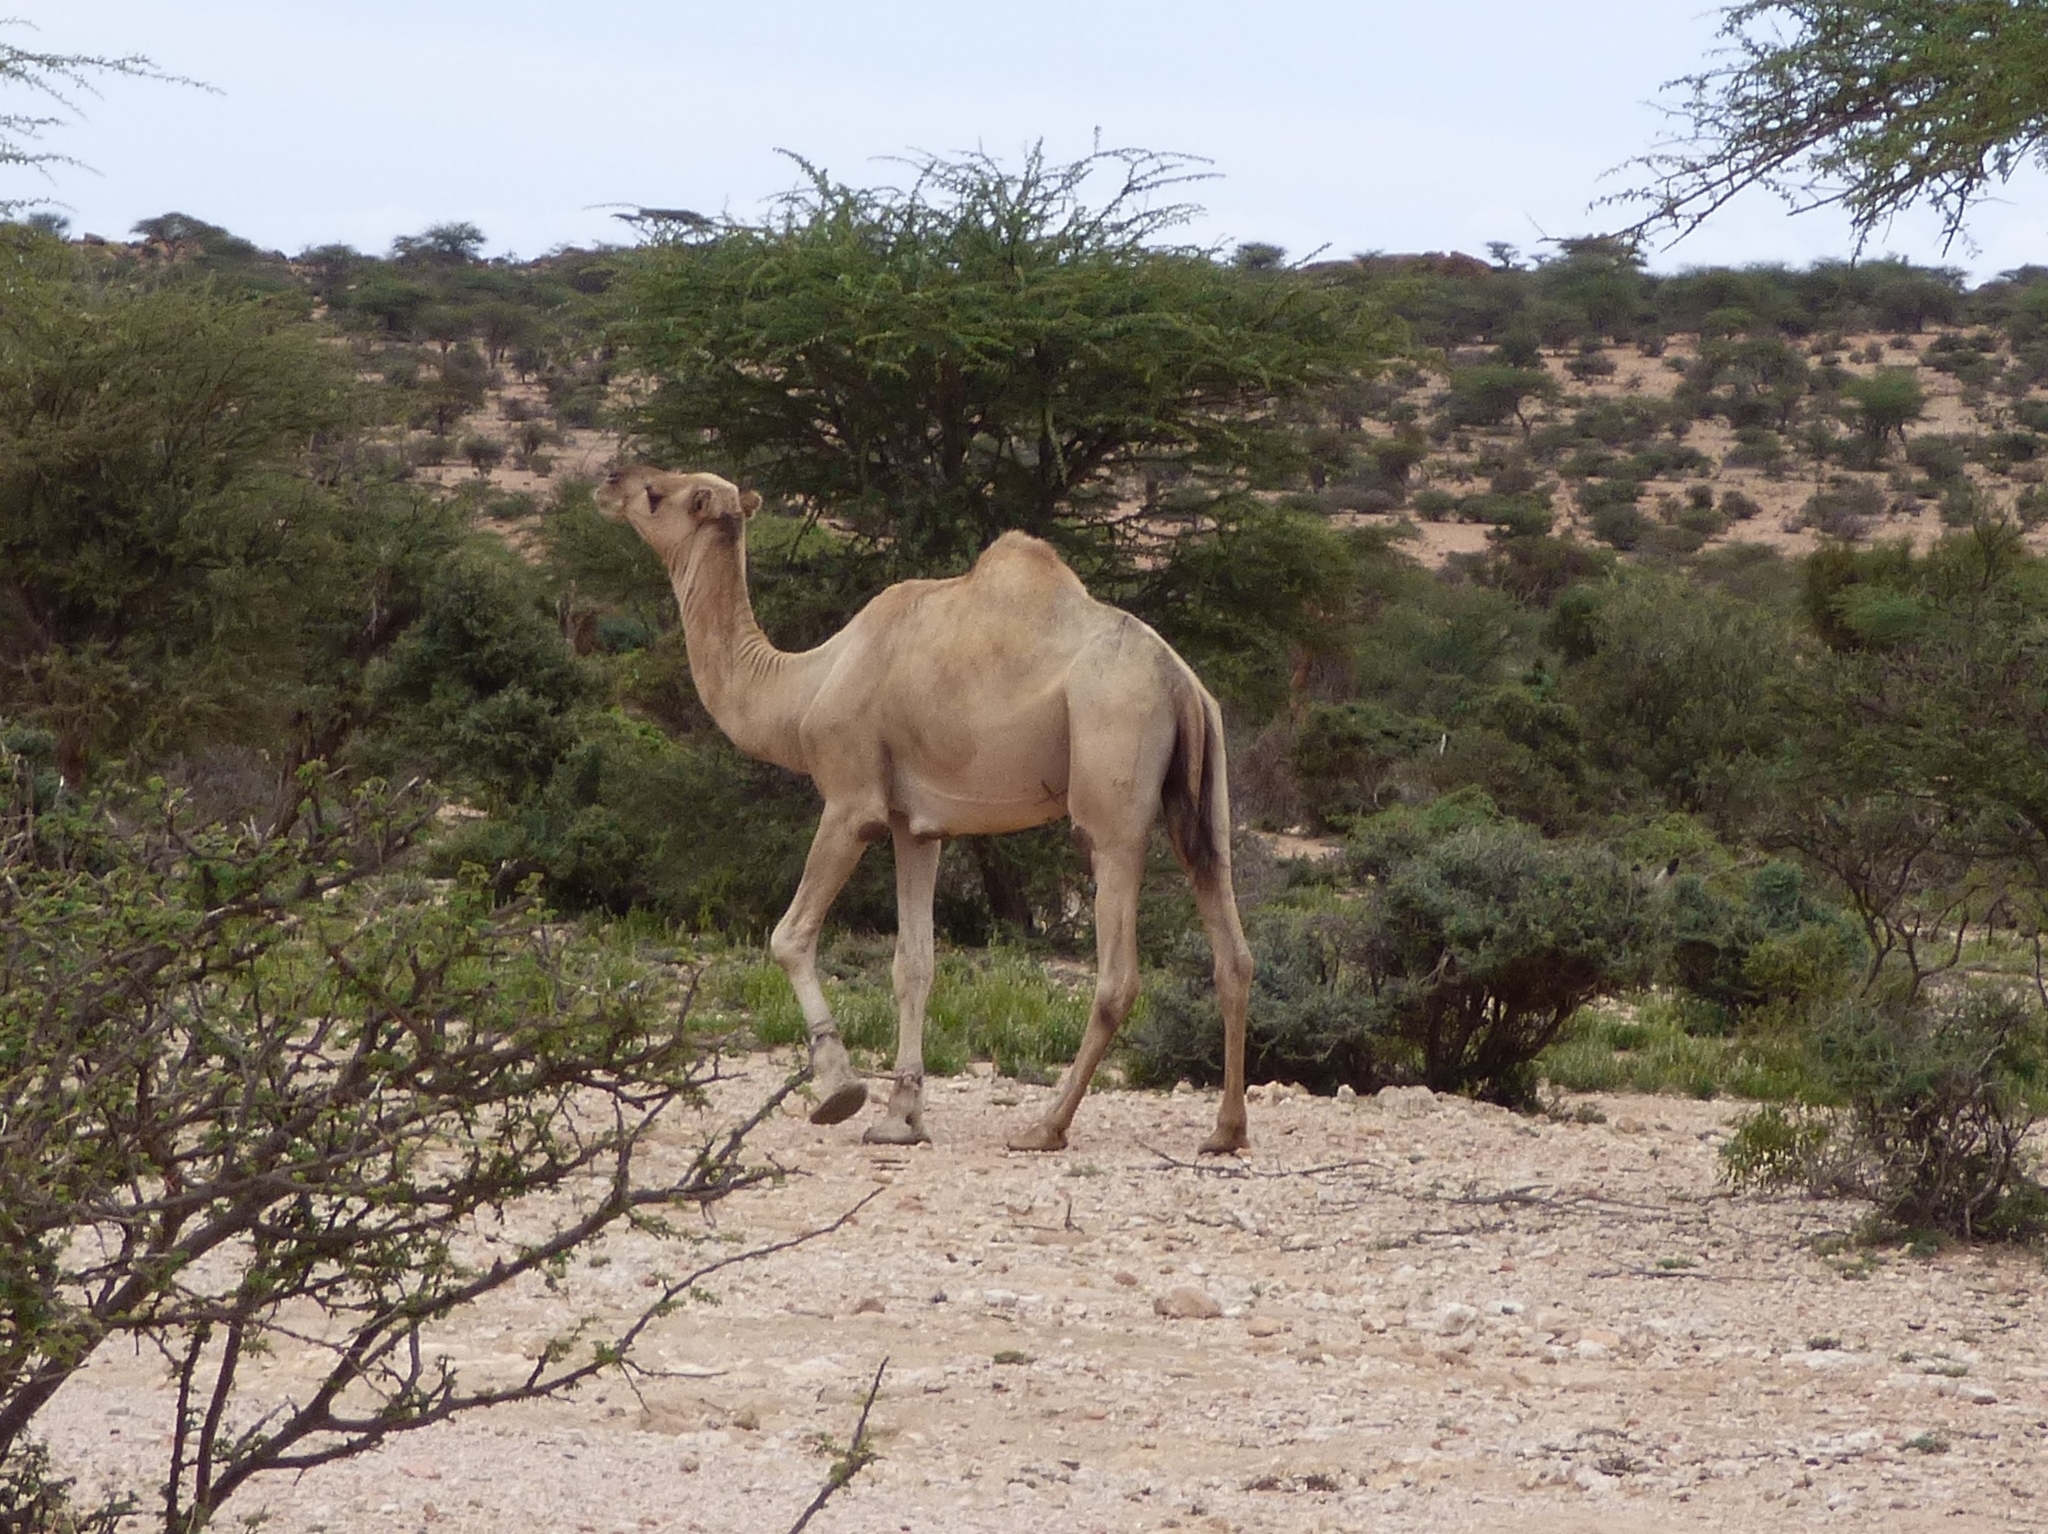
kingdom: Animalia
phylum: Chordata
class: Mammalia
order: Artiodactyla
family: Camelidae
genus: Camelus
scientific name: Camelus dromedarius
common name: One-humped camel
